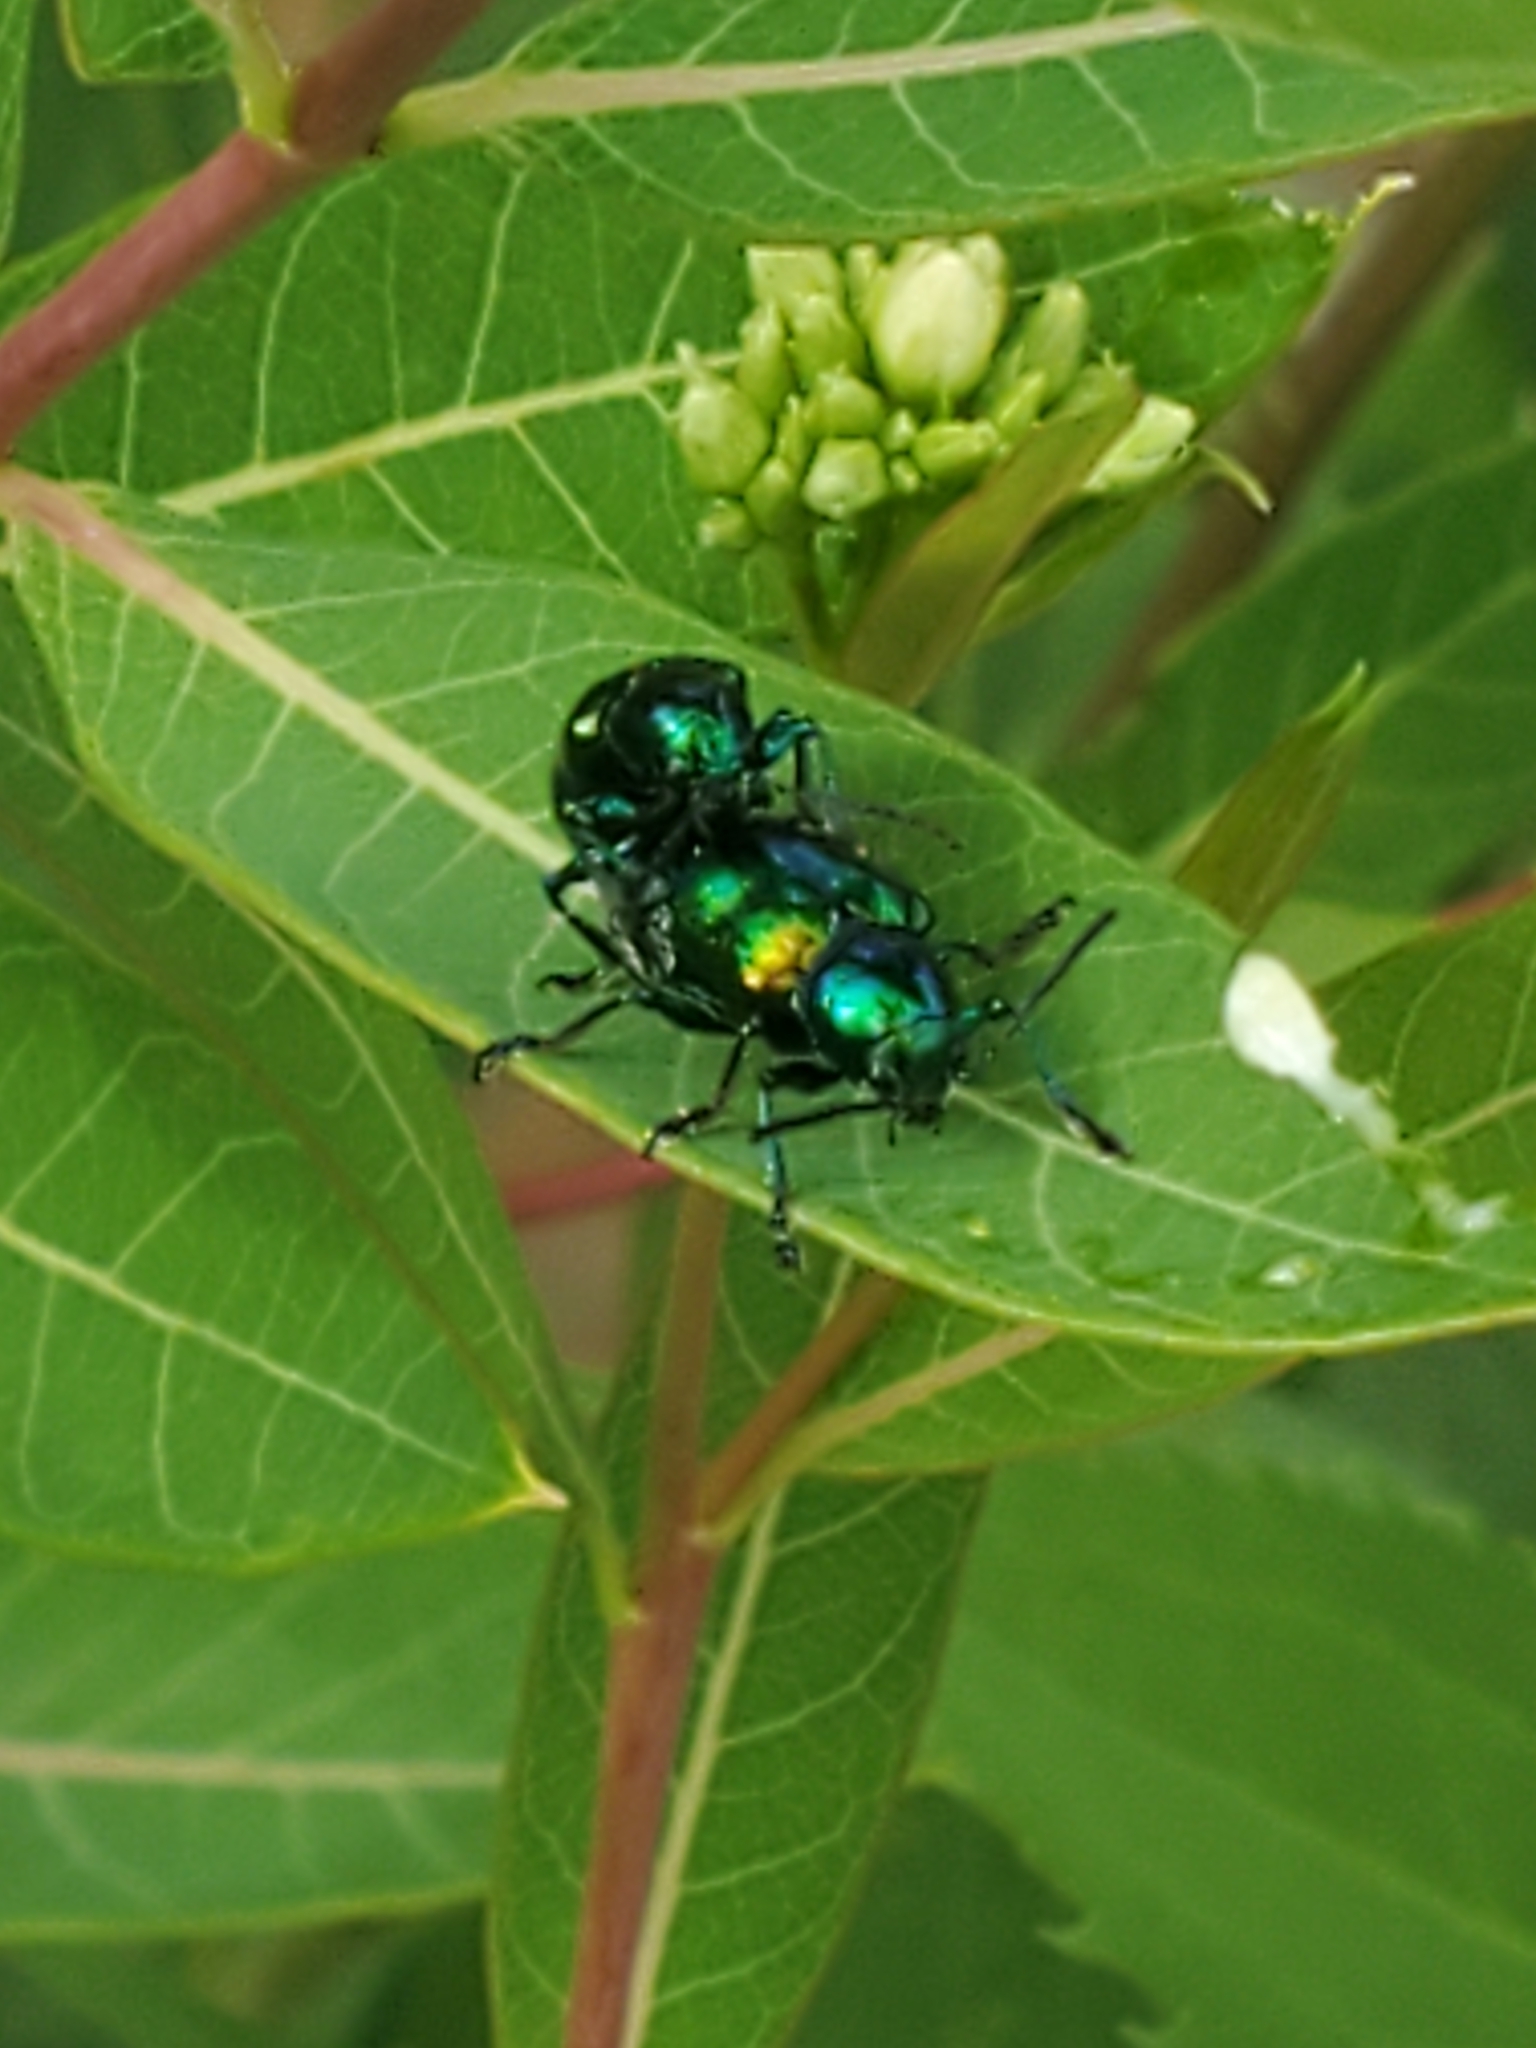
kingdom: Animalia
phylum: Arthropoda
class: Insecta
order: Coleoptera
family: Chrysomelidae
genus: Chrysochus
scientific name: Chrysochus auratus
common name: Dogbane leaf beetle
